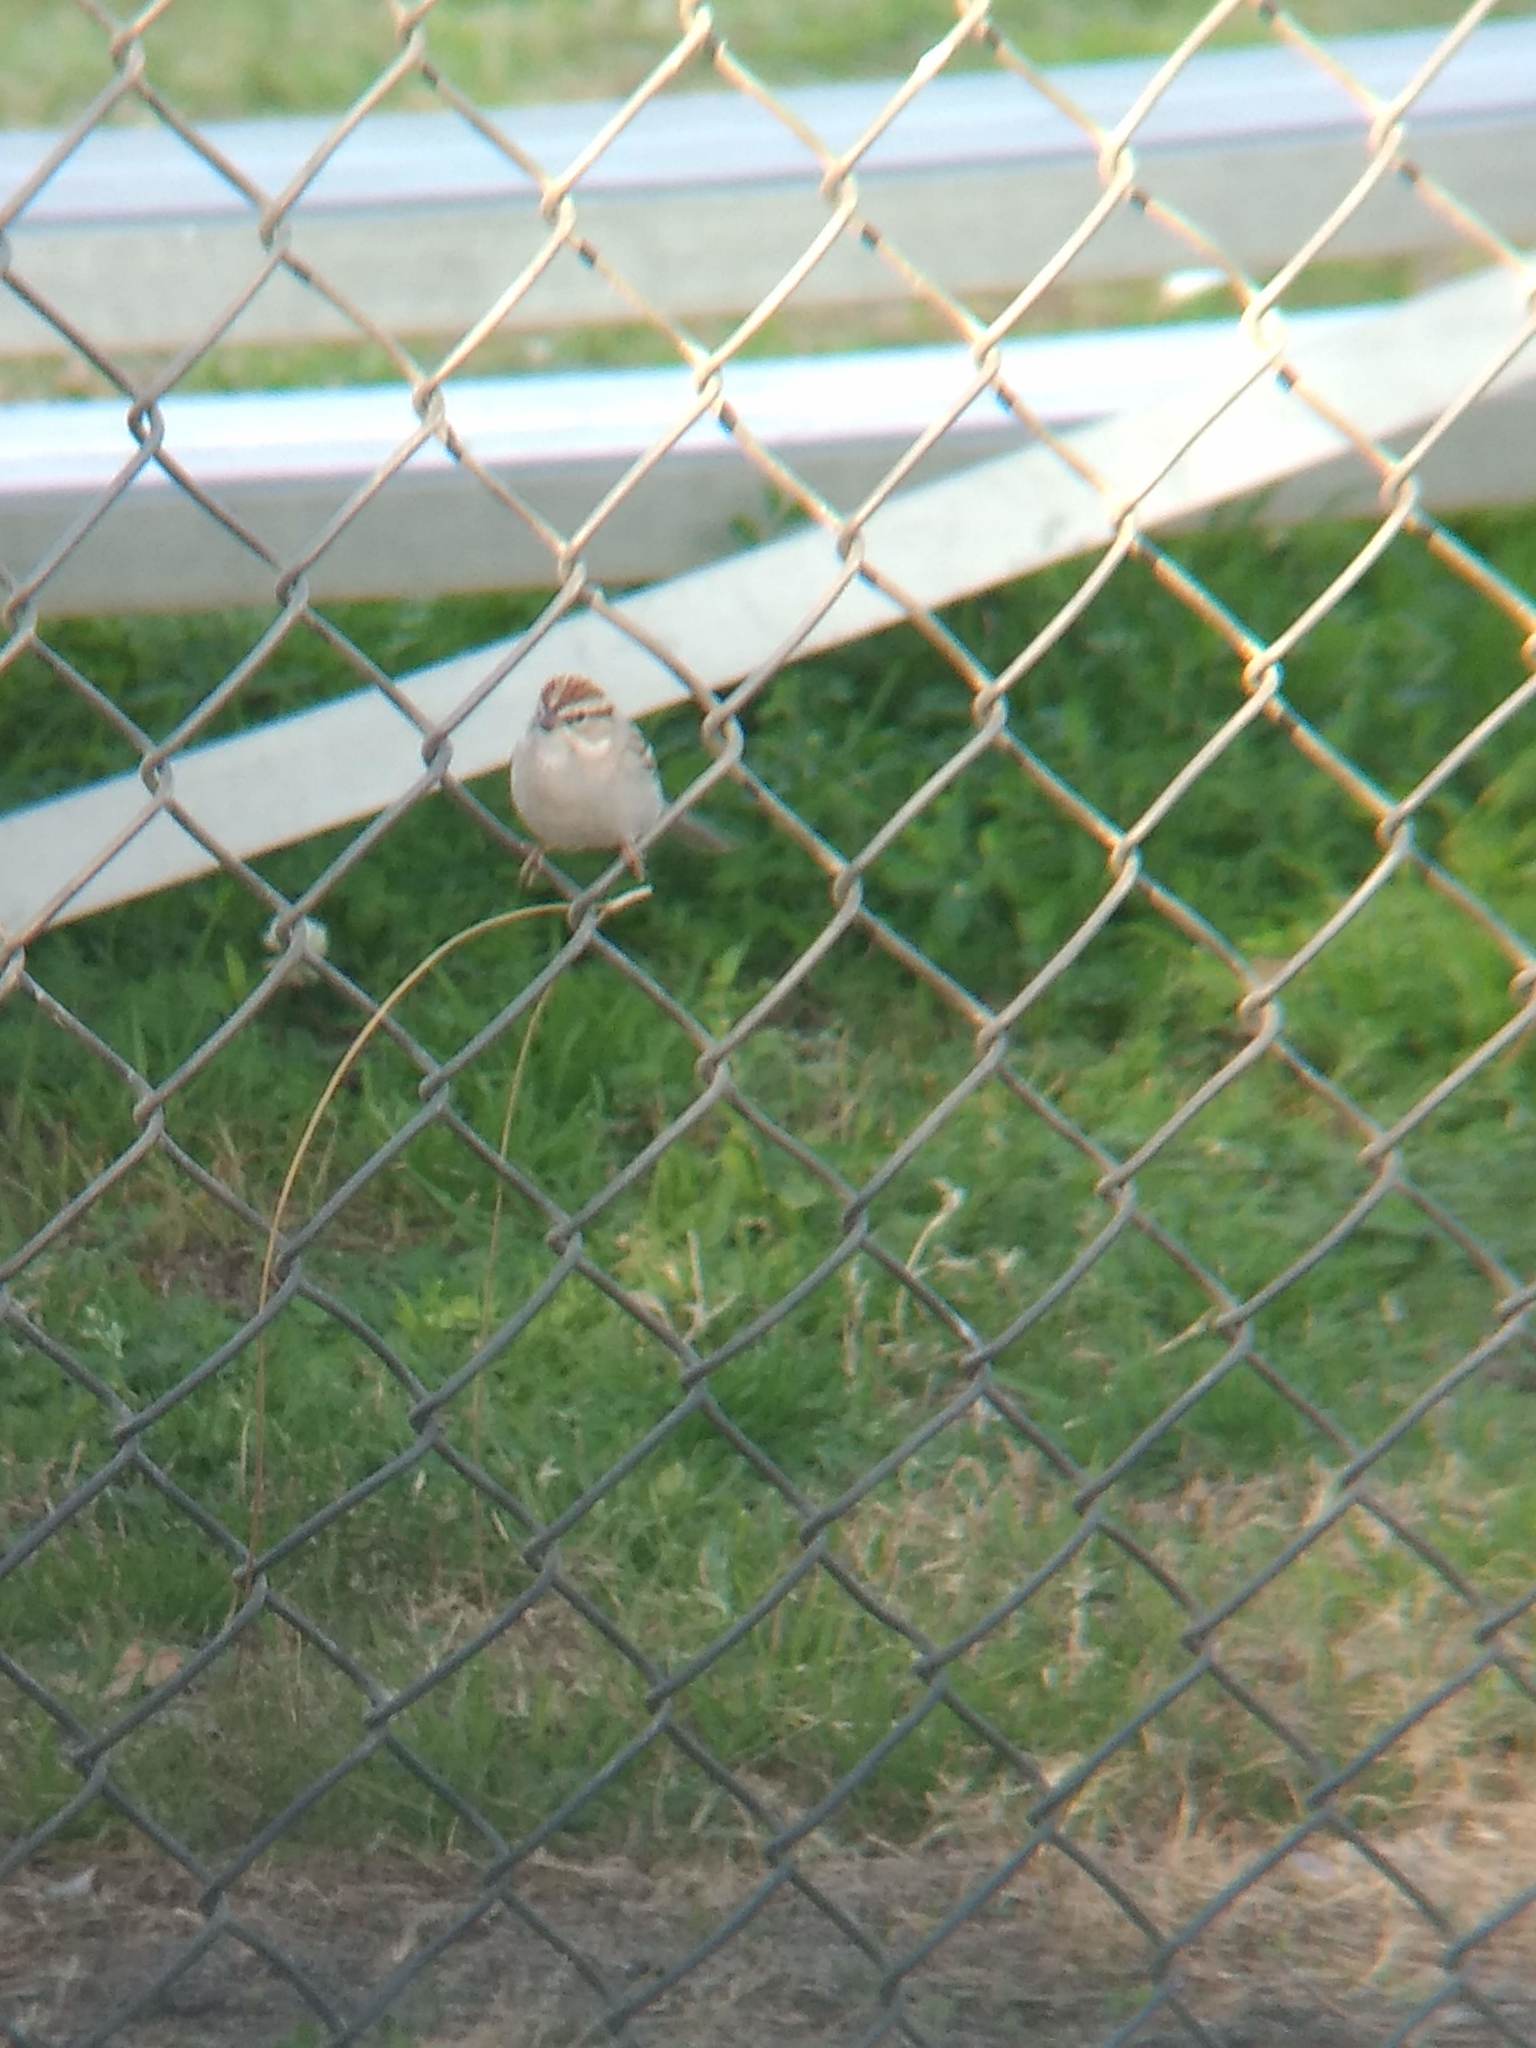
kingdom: Animalia
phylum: Chordata
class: Aves
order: Passeriformes
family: Passerellidae
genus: Spizella
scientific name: Spizella passerina
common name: Chipping sparrow
